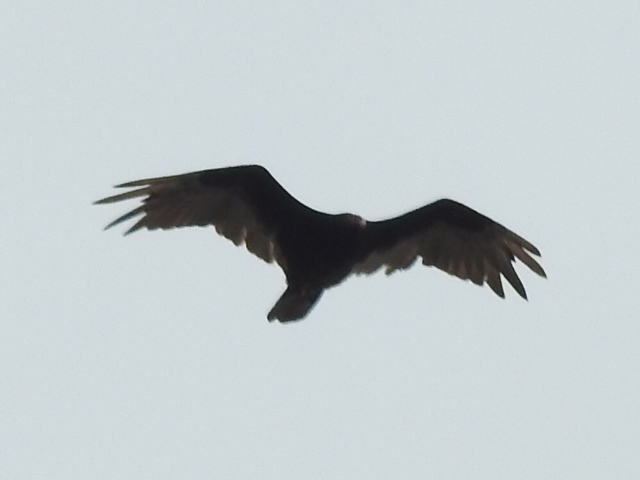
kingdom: Animalia
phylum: Chordata
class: Aves
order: Accipitriformes
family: Cathartidae
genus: Cathartes
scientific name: Cathartes aura
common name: Turkey vulture
